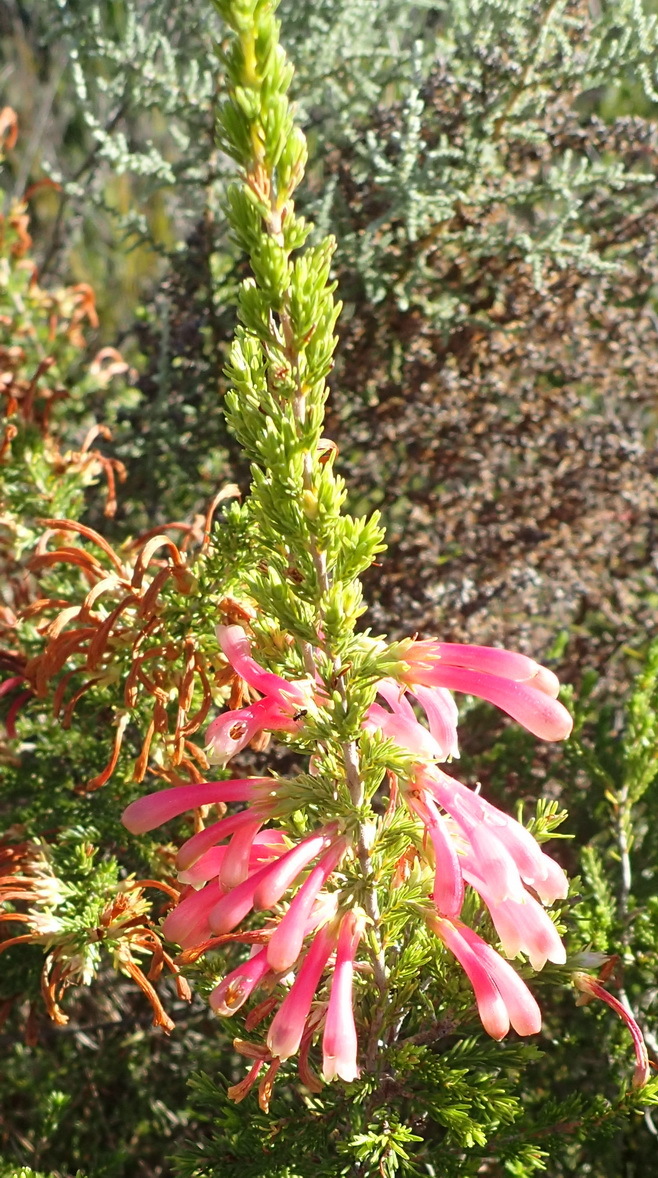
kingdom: Plantae
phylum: Tracheophyta
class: Magnoliopsida
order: Ericales
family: Ericaceae
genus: Erica
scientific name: Erica discolor
